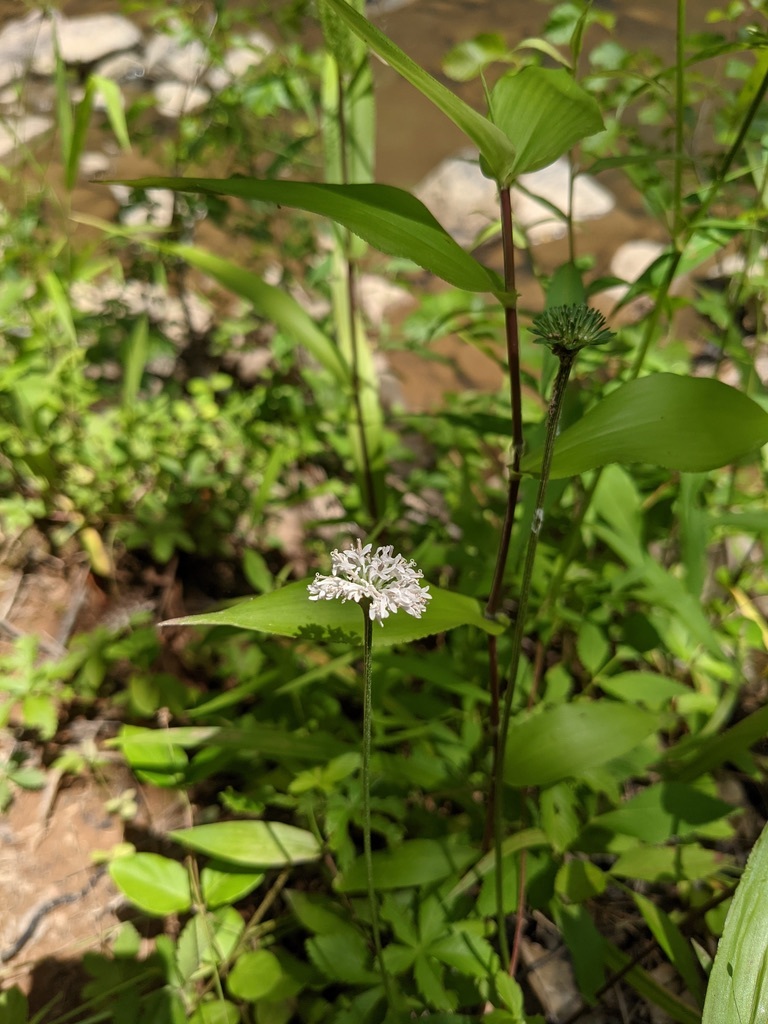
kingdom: Plantae
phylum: Tracheophyta
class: Magnoliopsida
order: Asterales
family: Asteraceae
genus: Marshallia
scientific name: Marshallia obovata
